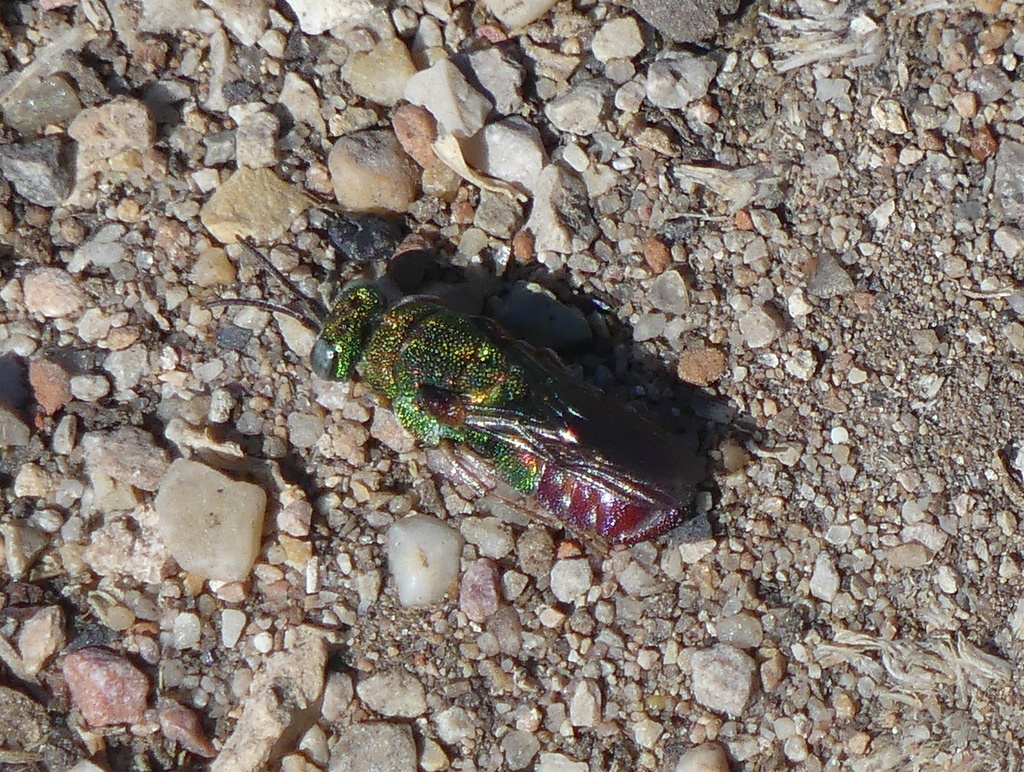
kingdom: Animalia
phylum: Arthropoda
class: Insecta
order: Hymenoptera
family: Chrysididae
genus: Parnopes
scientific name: Parnopes grandior
